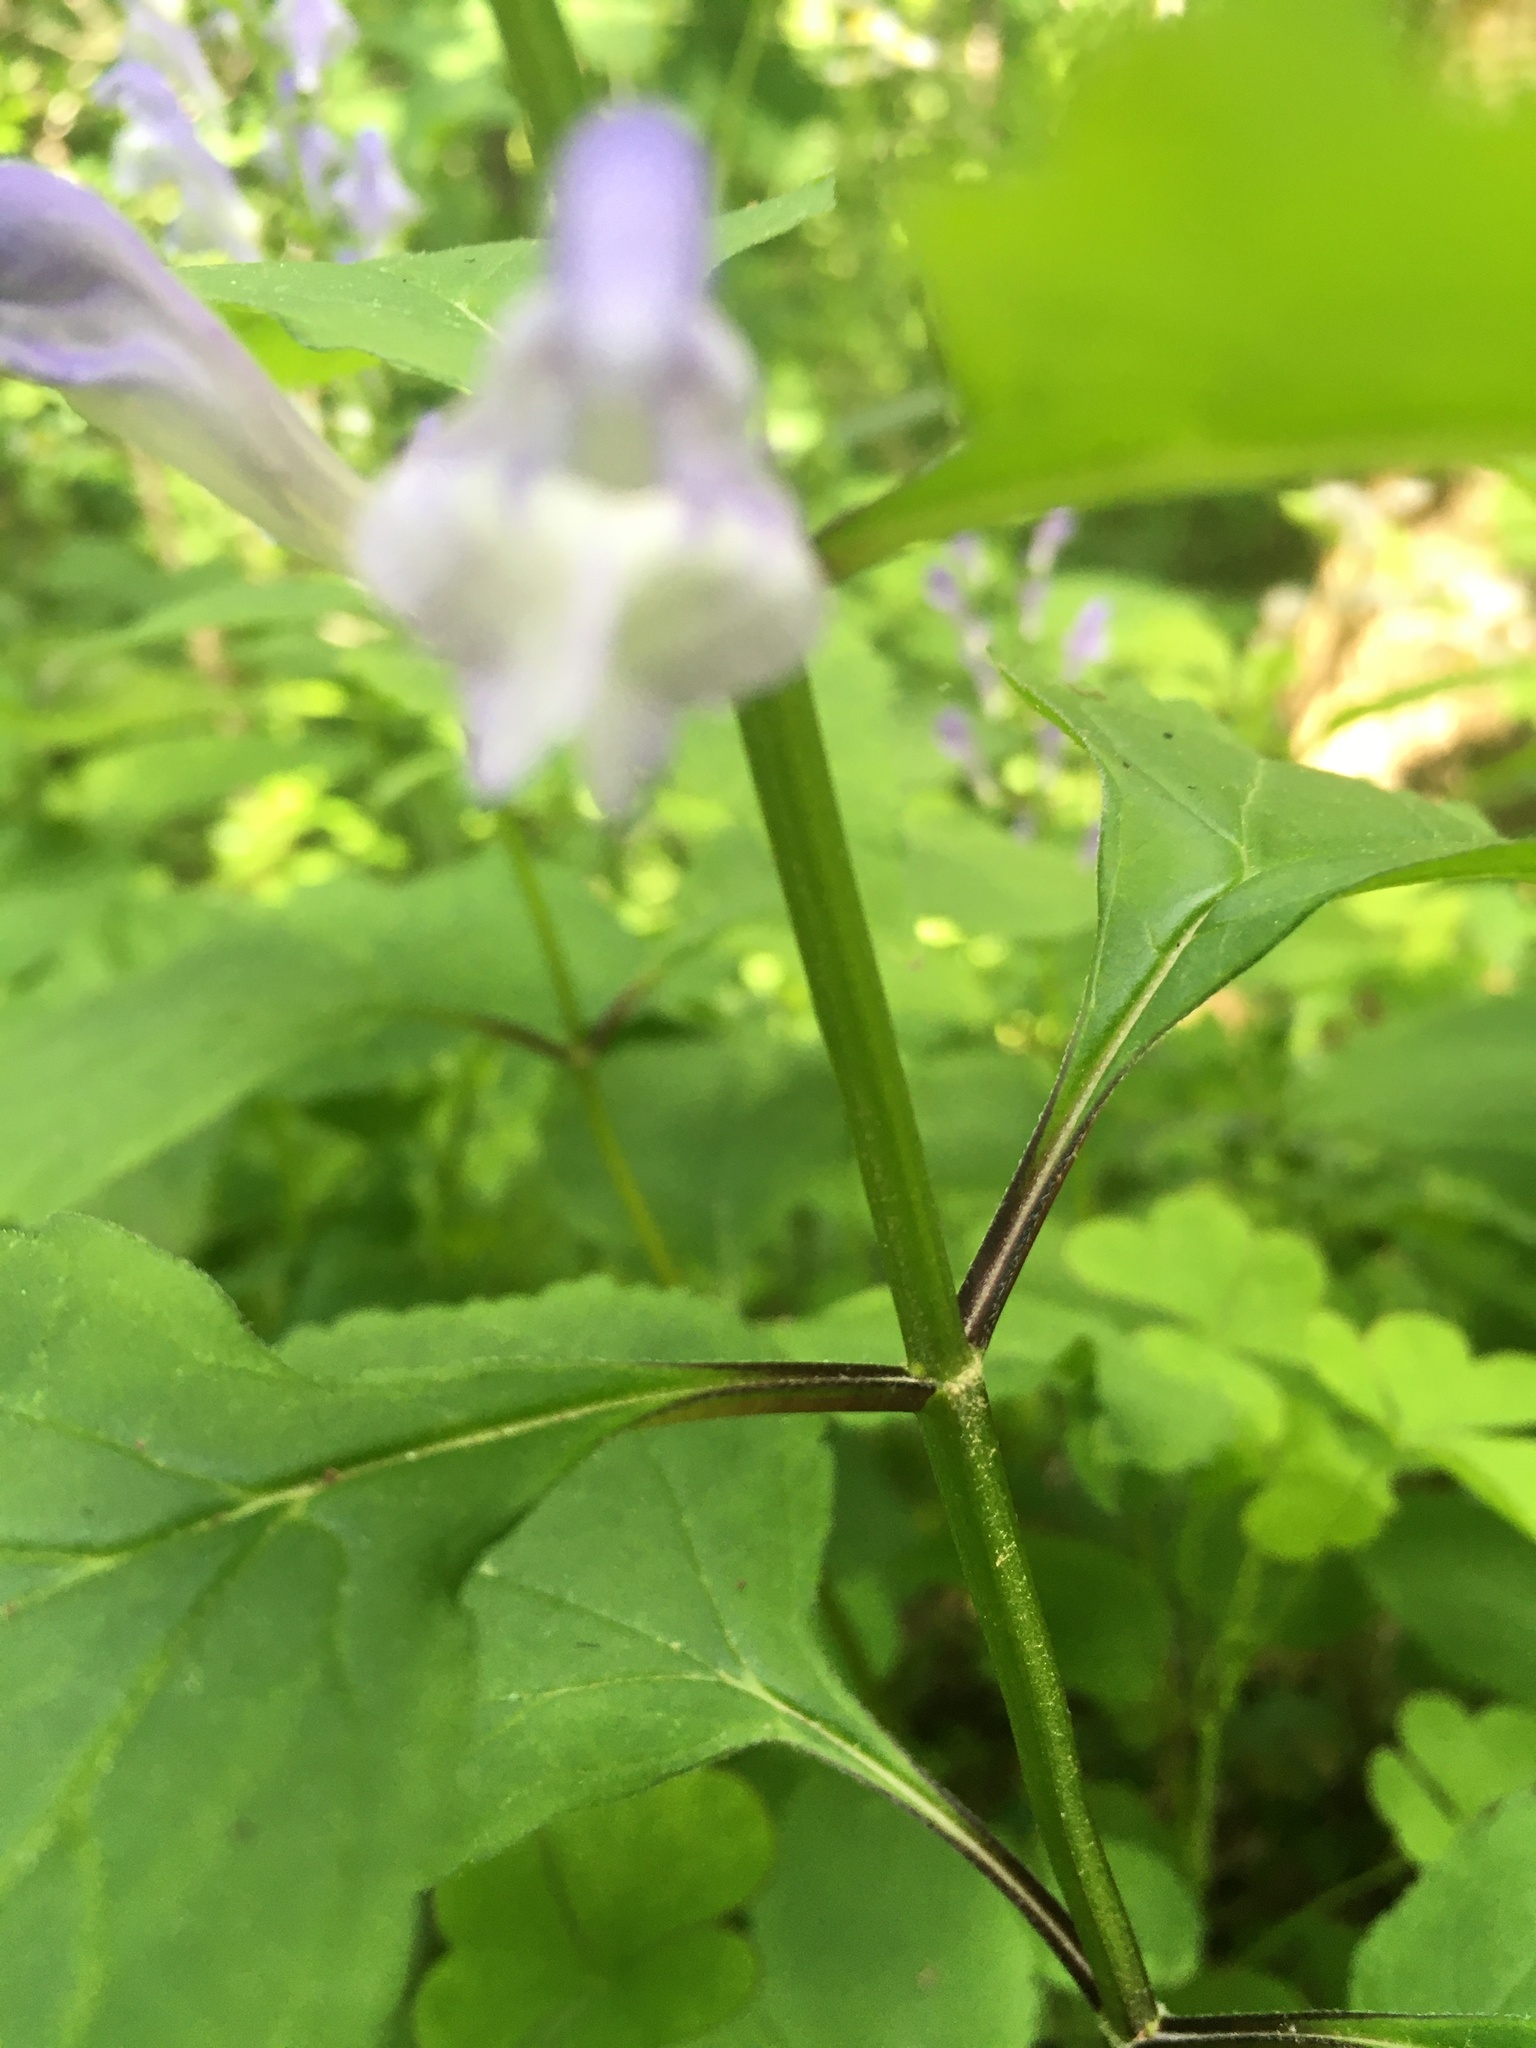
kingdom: Plantae
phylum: Tracheophyta
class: Magnoliopsida
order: Lamiales
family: Lamiaceae
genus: Scutellaria
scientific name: Scutellaria serrata
